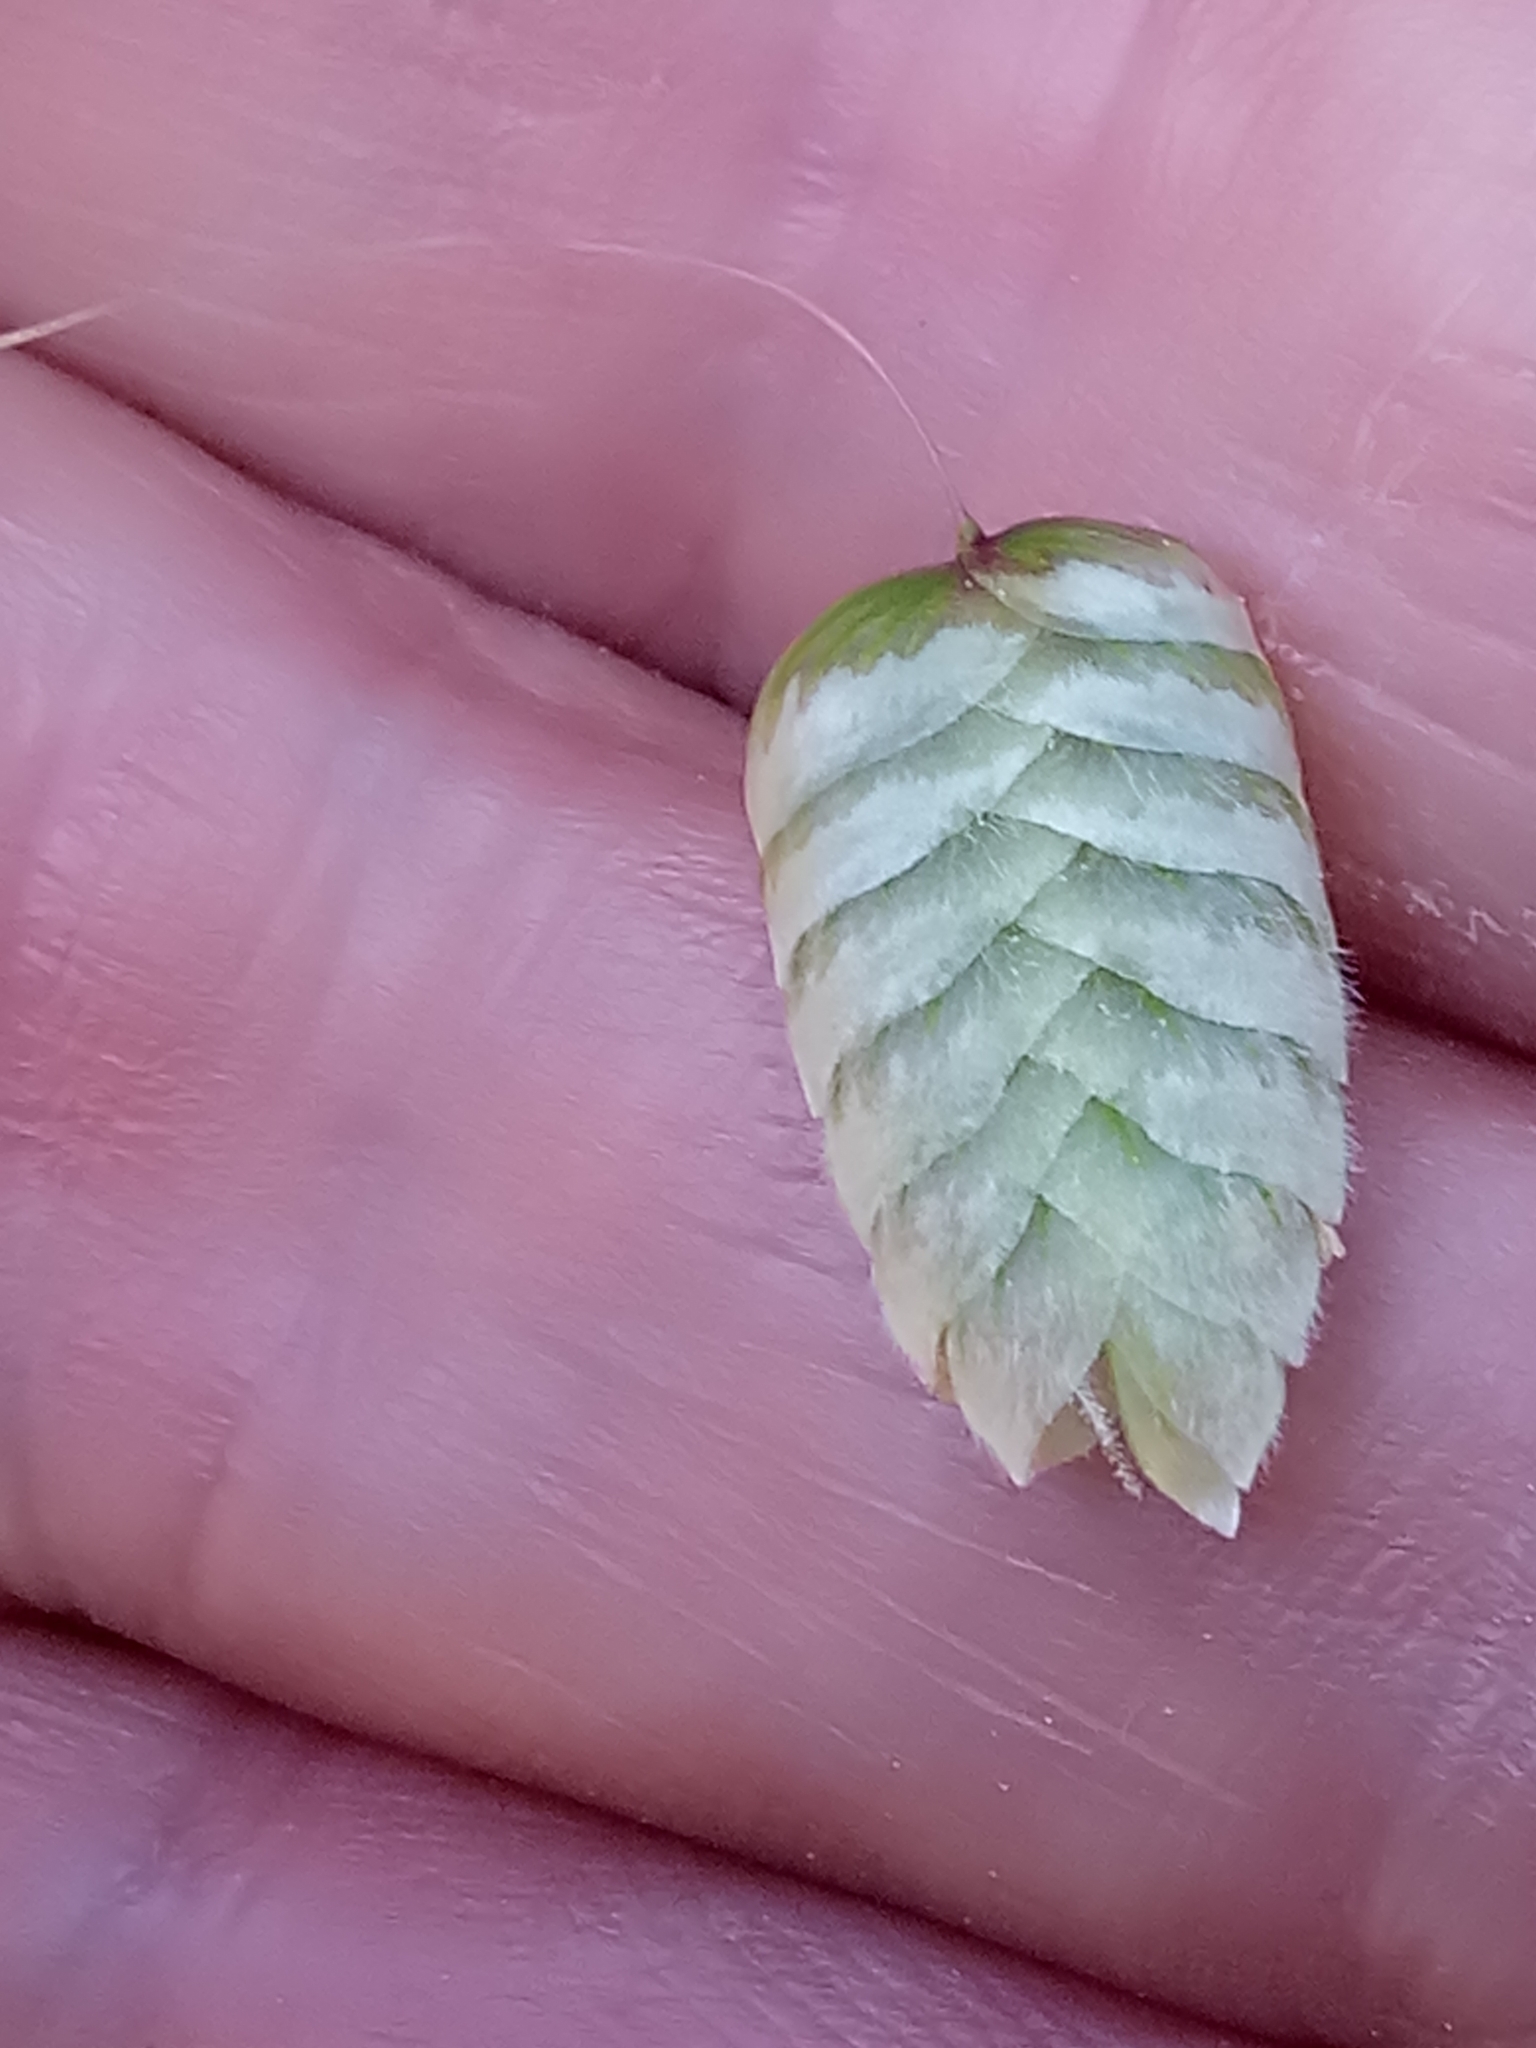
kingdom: Plantae
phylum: Tracheophyta
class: Liliopsida
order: Poales
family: Poaceae
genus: Briza
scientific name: Briza maxima
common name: Big quakinggrass
